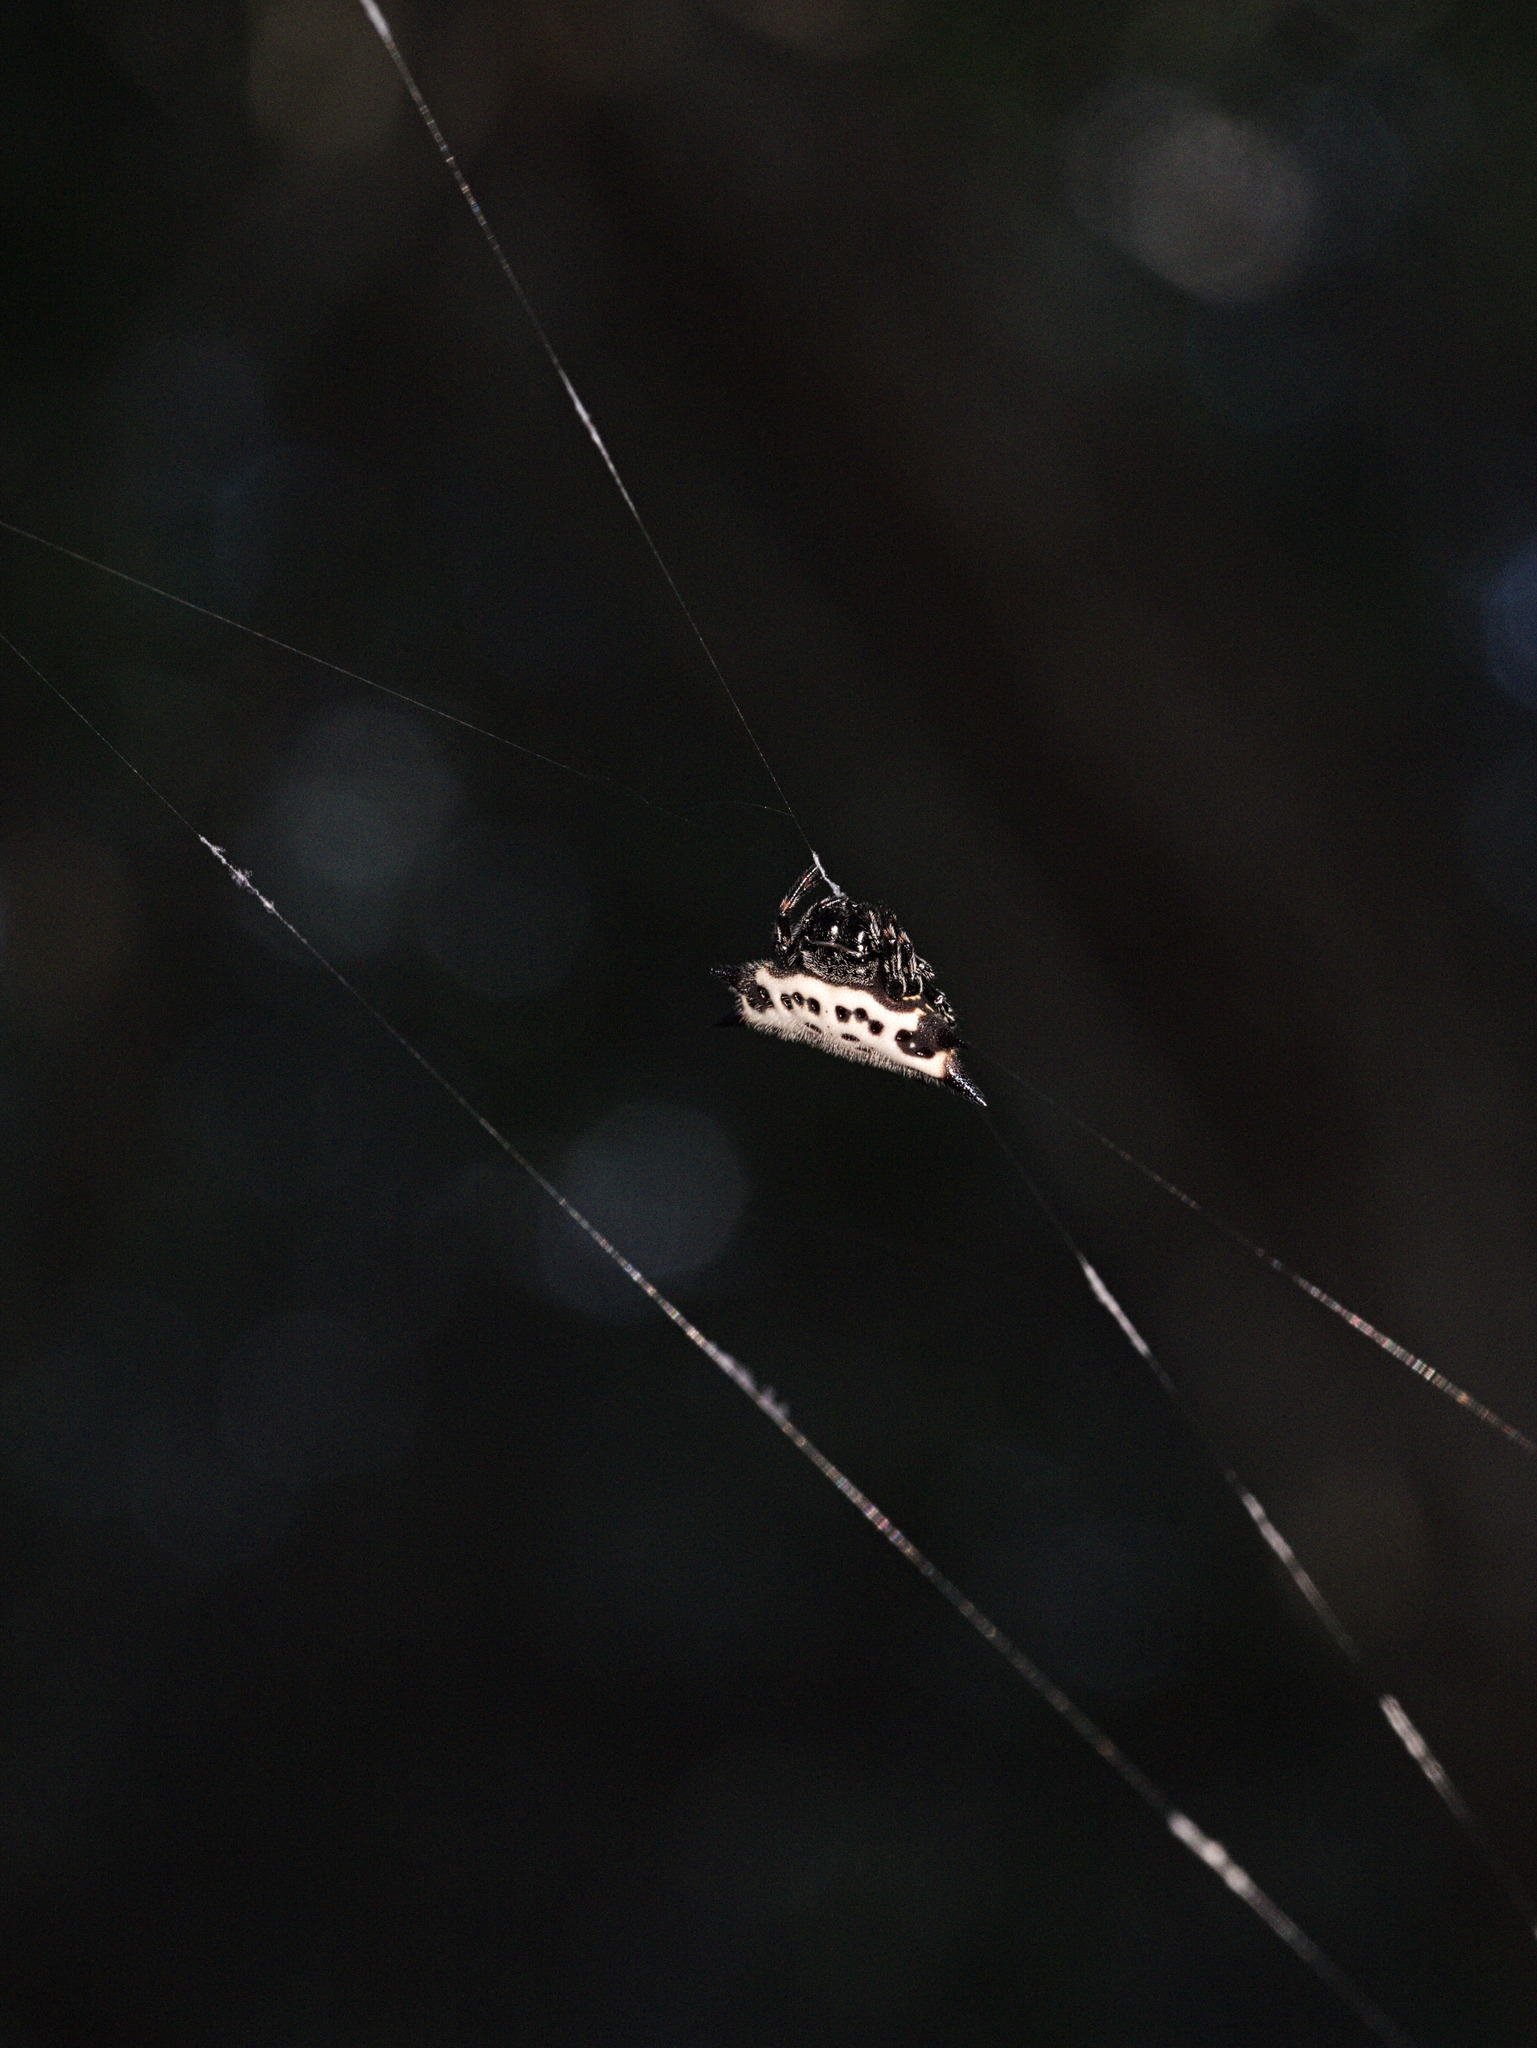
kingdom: Animalia
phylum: Arthropoda
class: Arachnida
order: Araneae
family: Araneidae
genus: Gasteracantha
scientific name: Gasteracantha cancriformis
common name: Orb weavers
